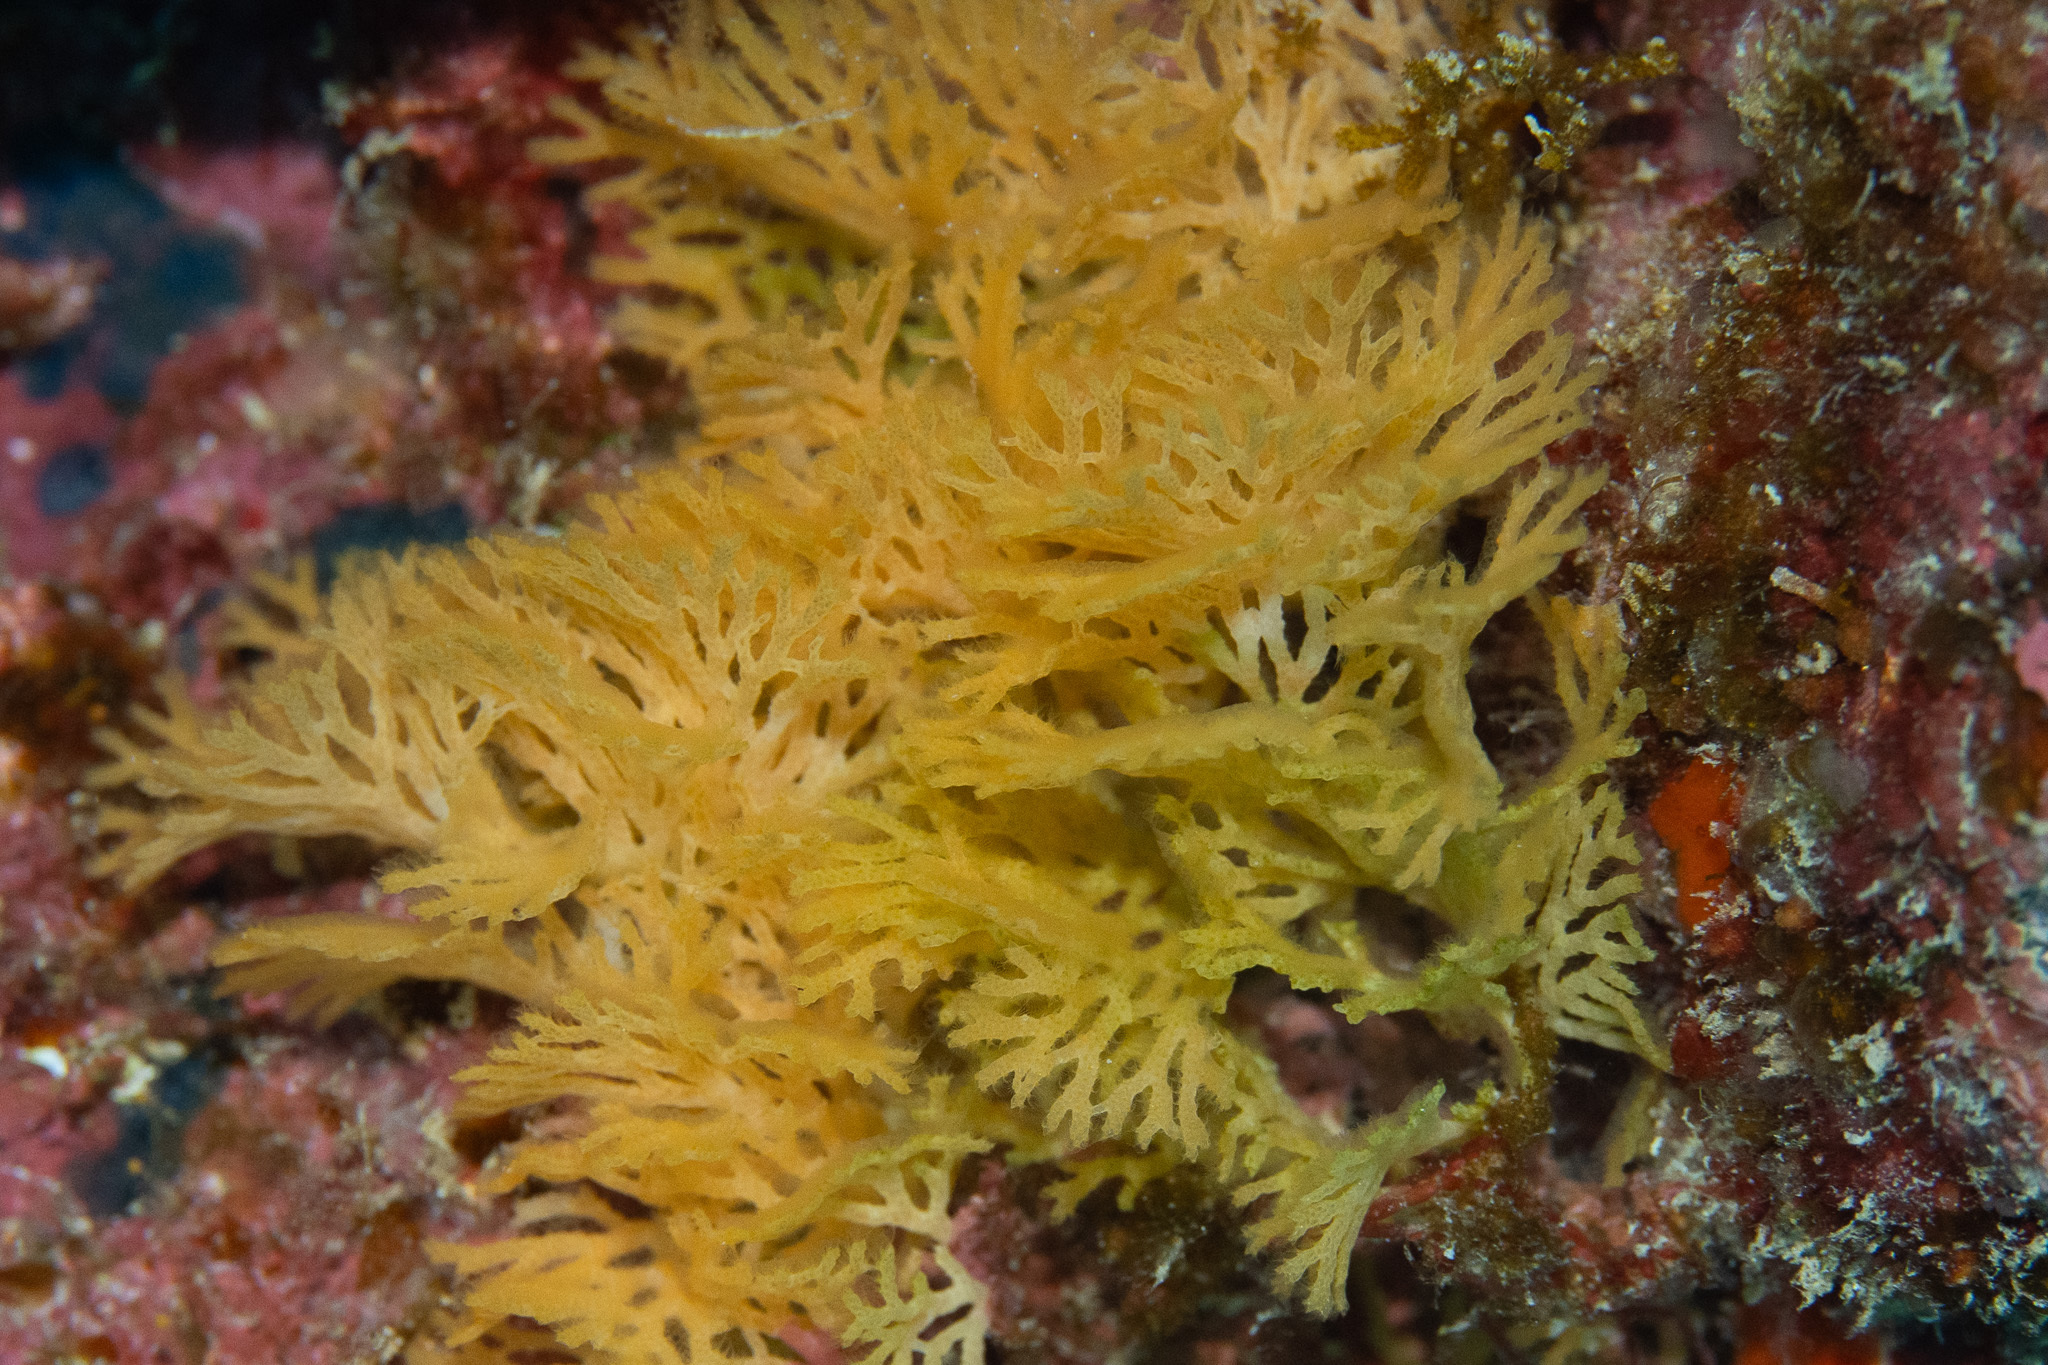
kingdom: Animalia
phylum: Bryozoa
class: Gymnolaemata
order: Cheilostomatida
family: Phidoloporidae
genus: Reteporellina
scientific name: Reteporellina denticulata
